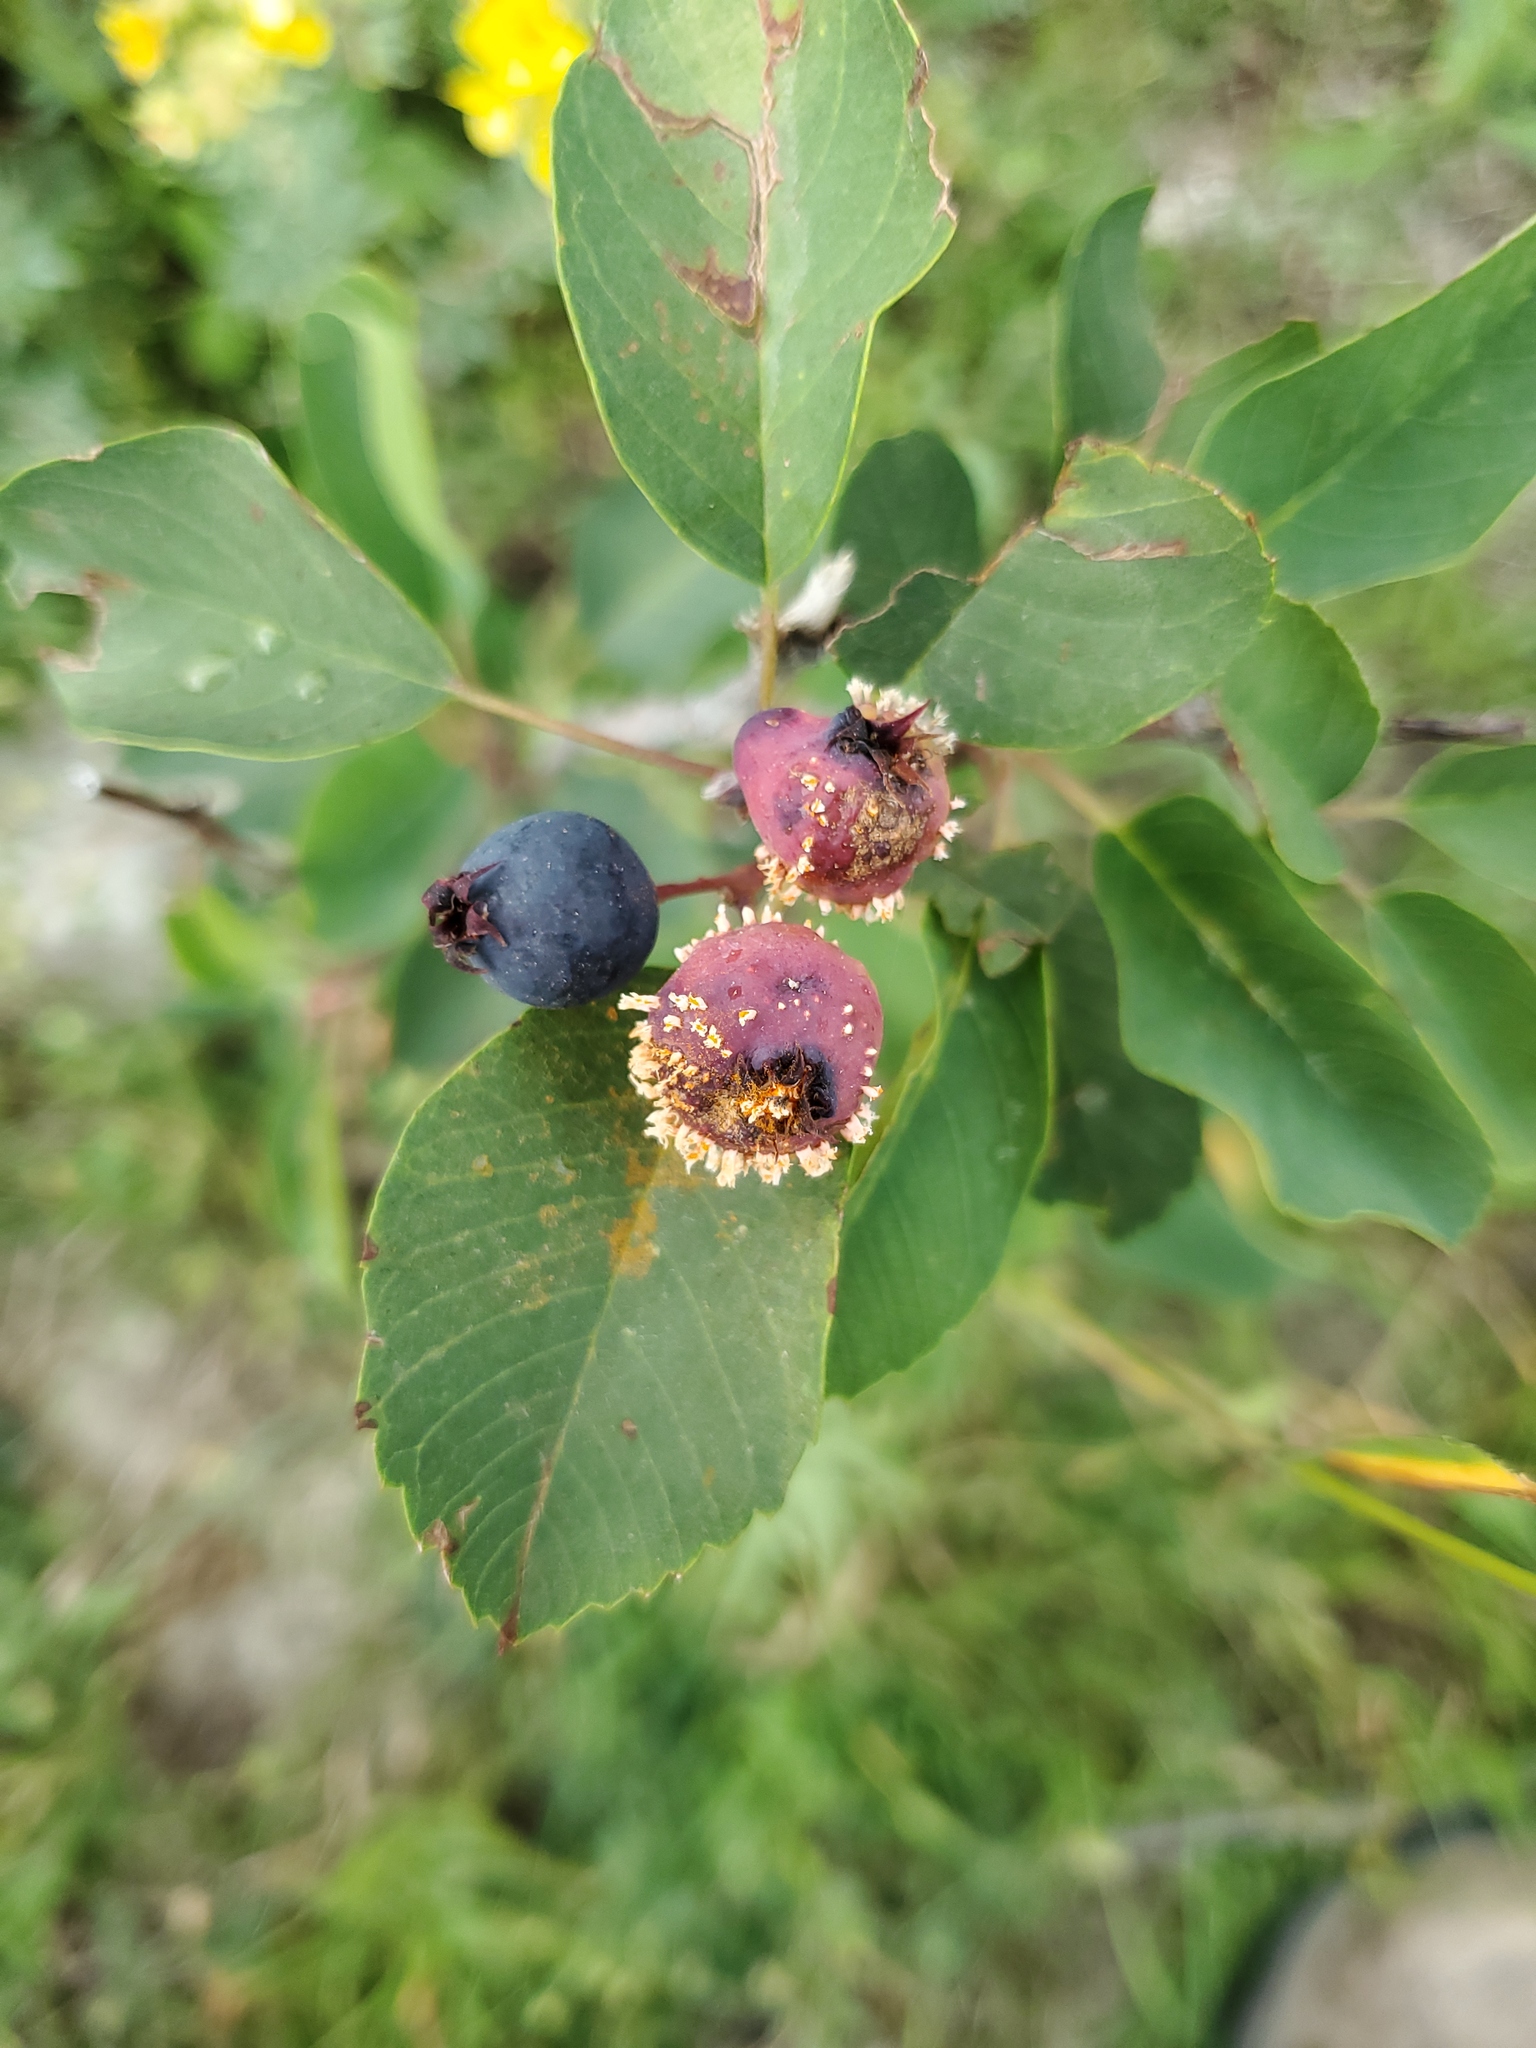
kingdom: Plantae
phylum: Tracheophyta
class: Magnoliopsida
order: Rosales
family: Rosaceae
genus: Amelanchier
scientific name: Amelanchier alnifolia
